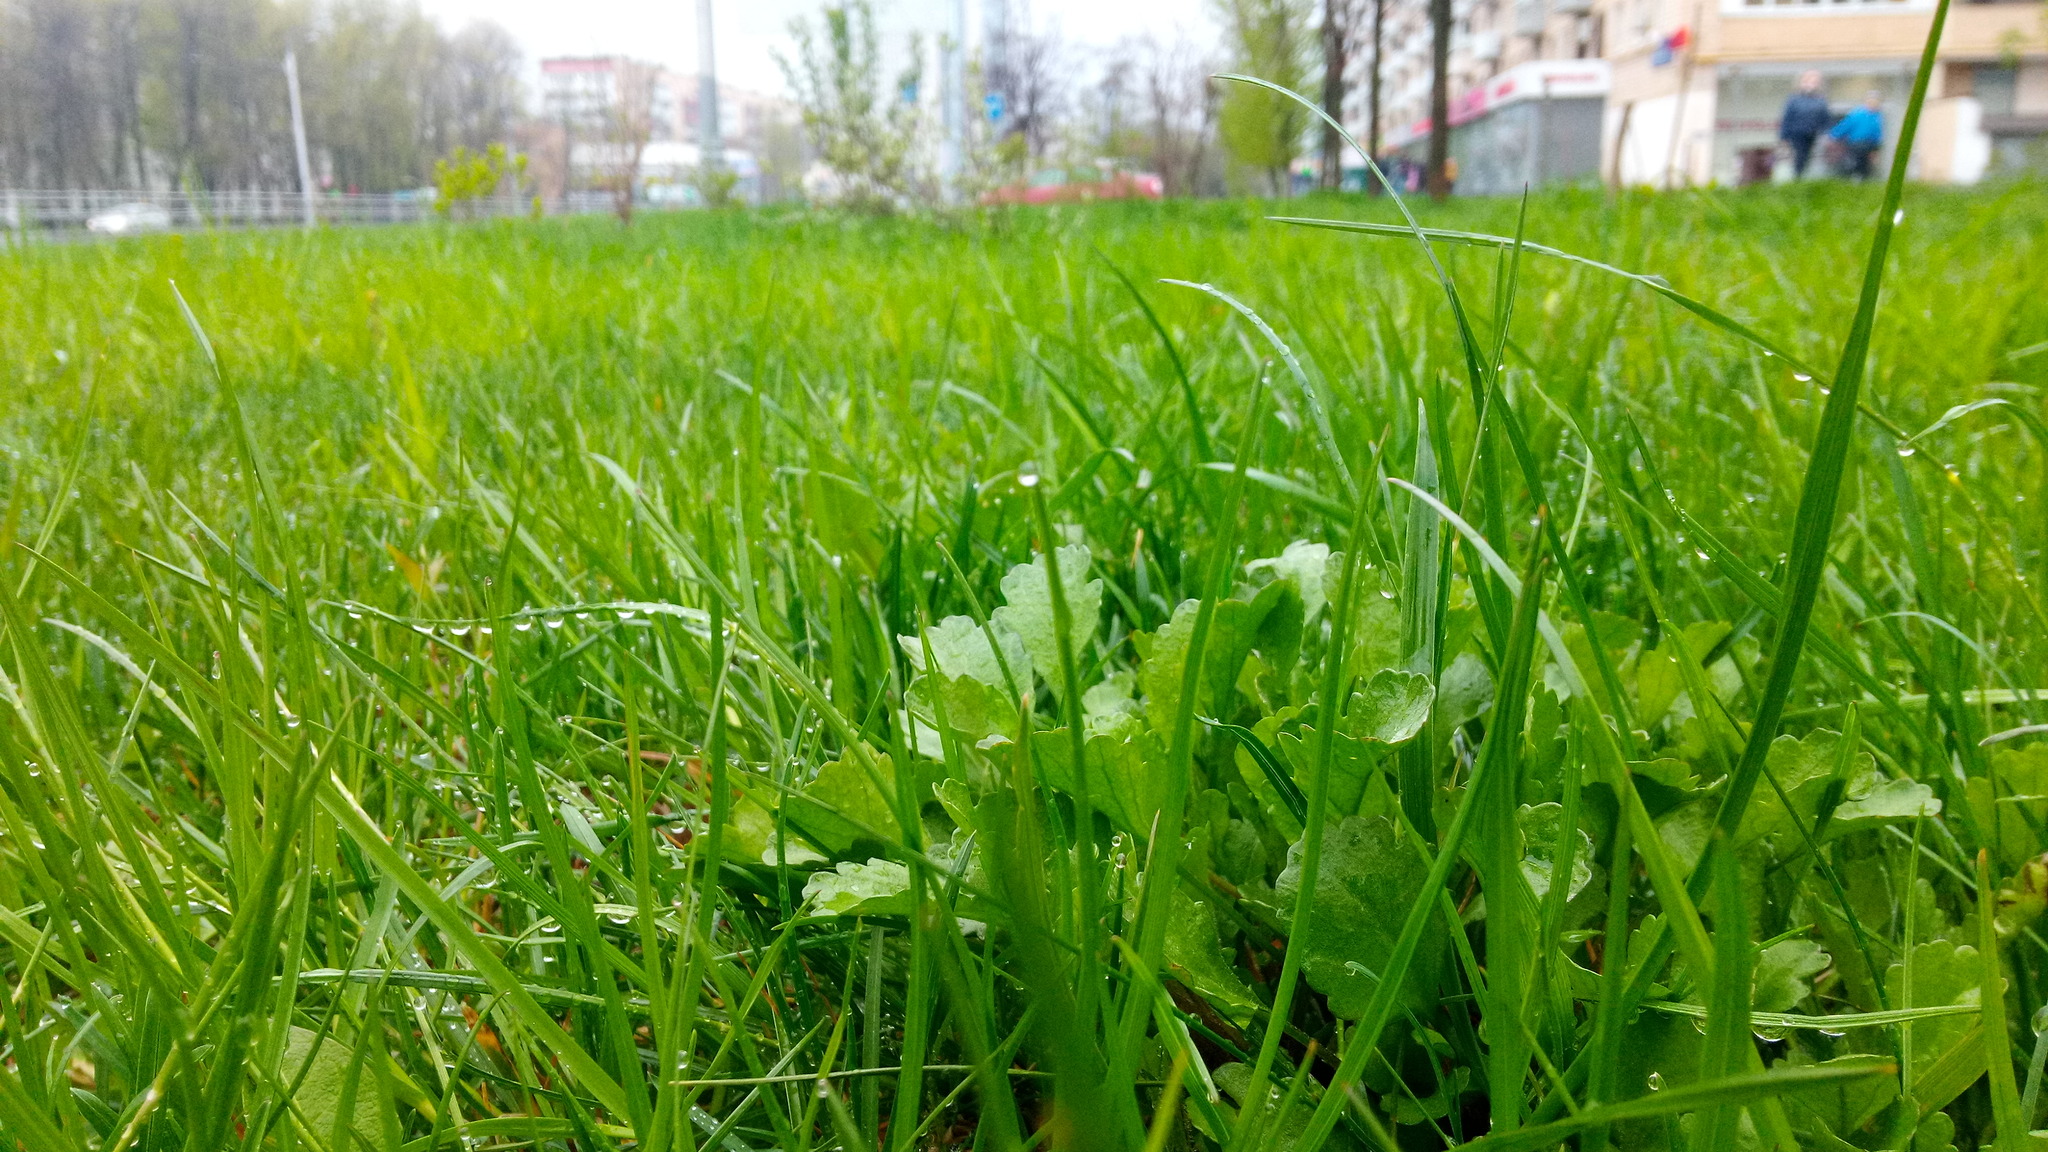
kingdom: Plantae
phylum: Tracheophyta
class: Magnoliopsida
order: Asterales
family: Asteraceae
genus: Leucanthemum
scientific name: Leucanthemum vulgare
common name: Oxeye daisy
